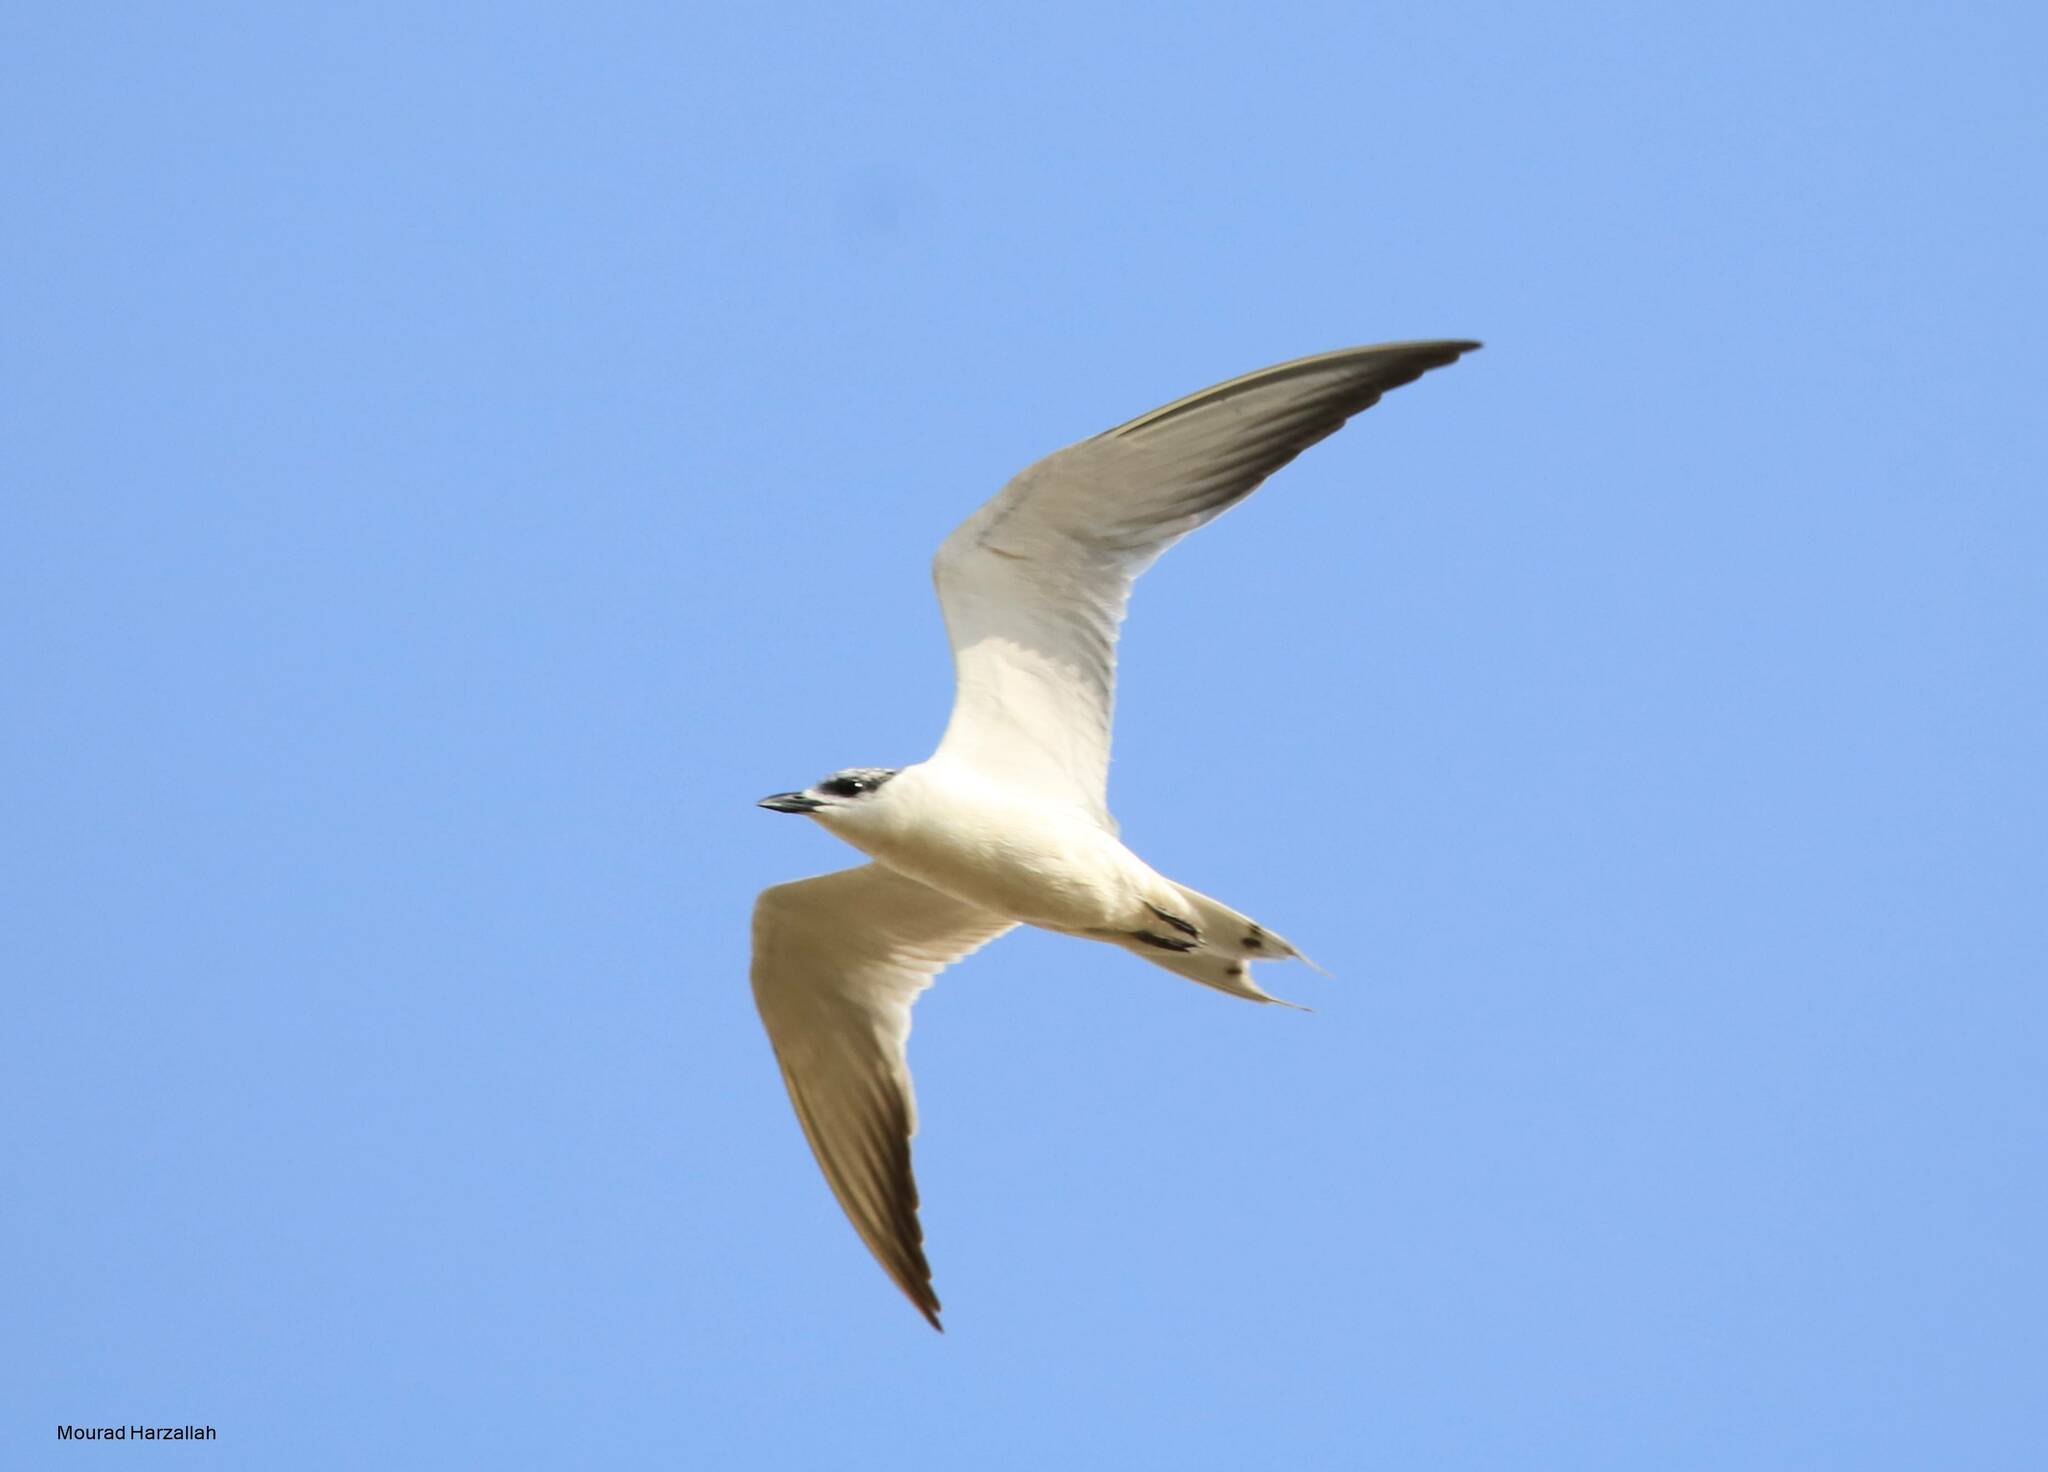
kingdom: Animalia
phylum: Chordata
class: Aves
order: Charadriiformes
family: Laridae
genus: Gelochelidon
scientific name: Gelochelidon nilotica
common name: Gull-billed tern
